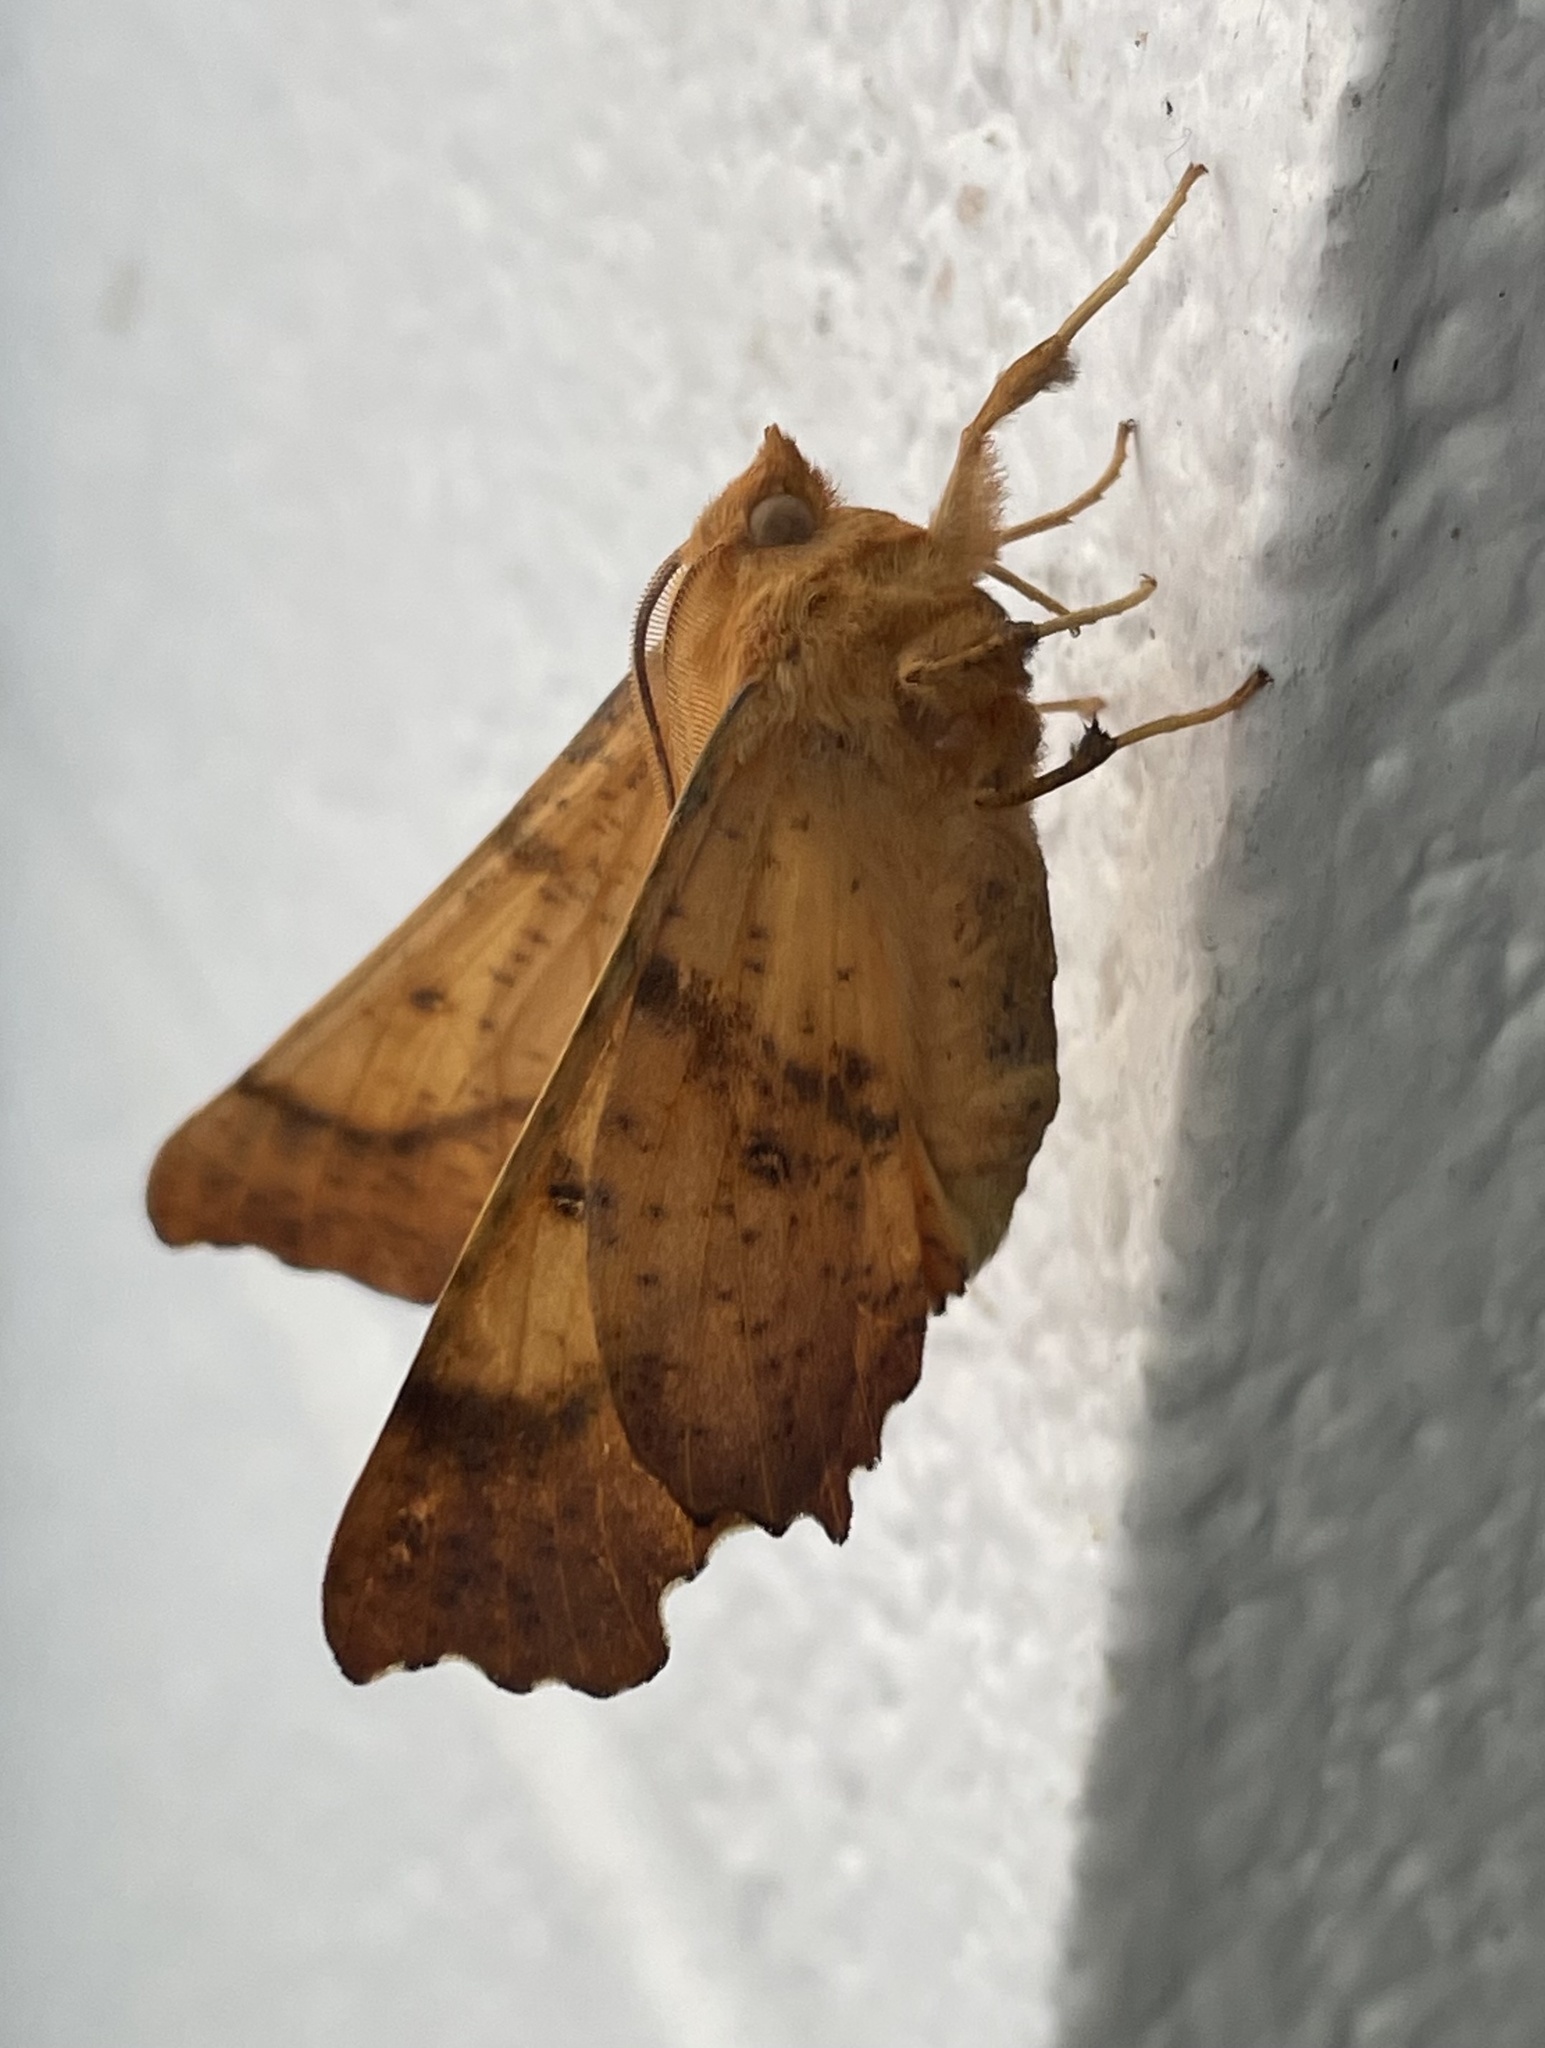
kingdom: Animalia
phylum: Arthropoda
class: Insecta
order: Lepidoptera
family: Geometridae
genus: Ennomos
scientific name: Ennomos magnaria
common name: Maple spanworm
